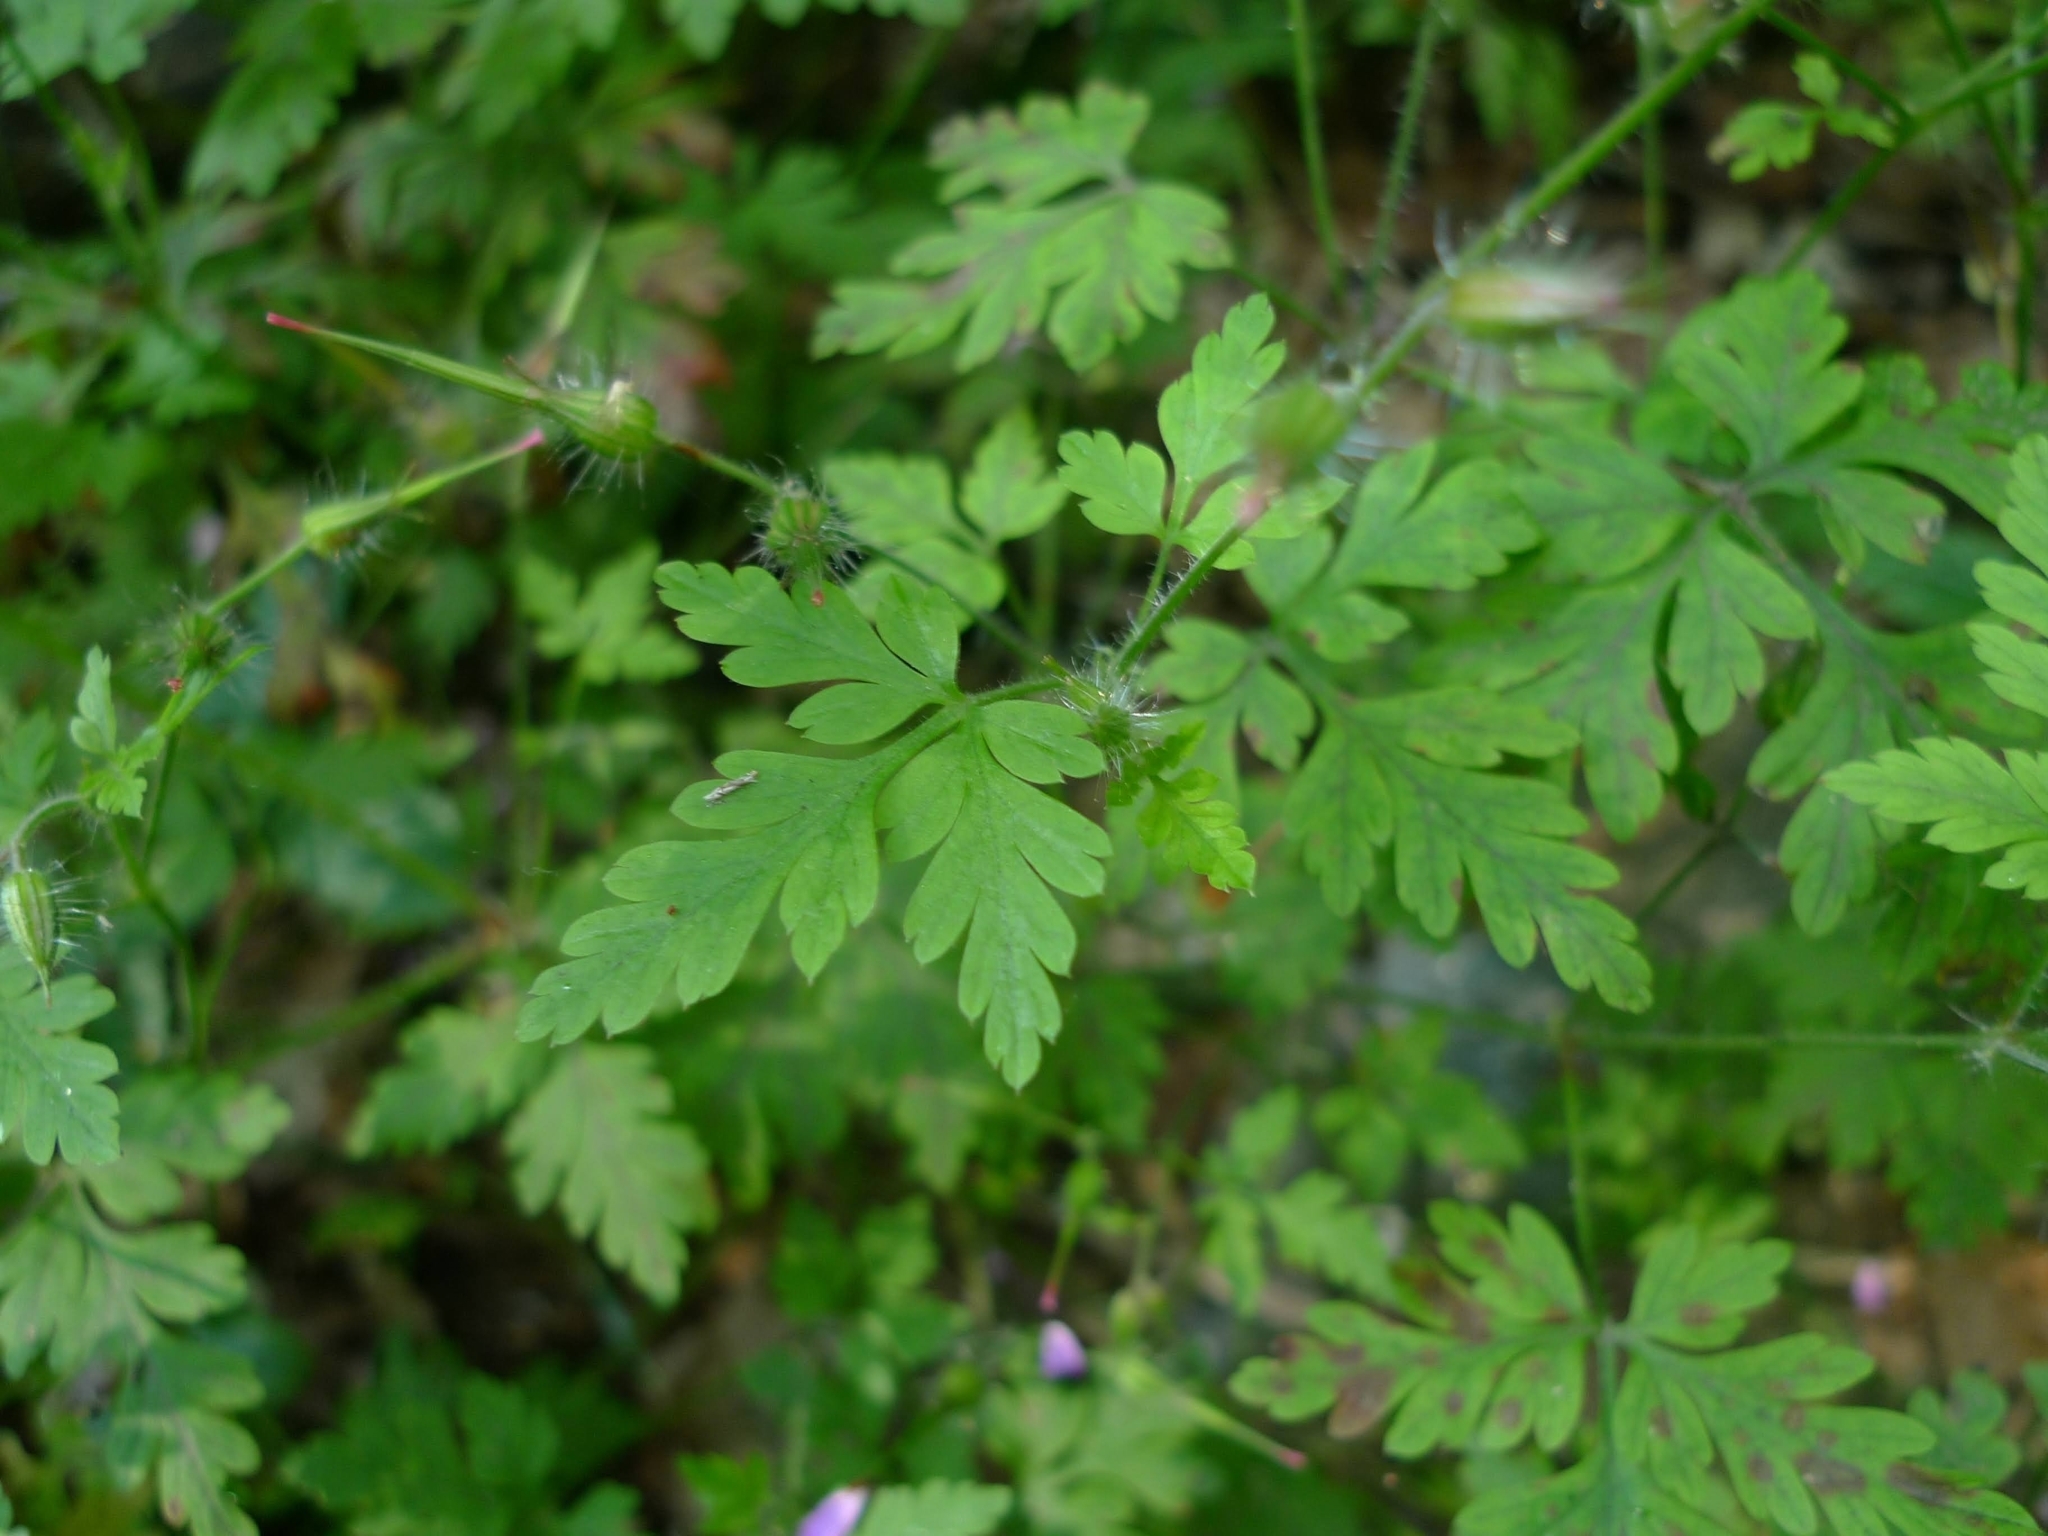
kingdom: Plantae
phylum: Tracheophyta
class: Magnoliopsida
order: Geraniales
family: Geraniaceae
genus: Geranium
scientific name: Geranium robertianum
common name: Herb-robert
